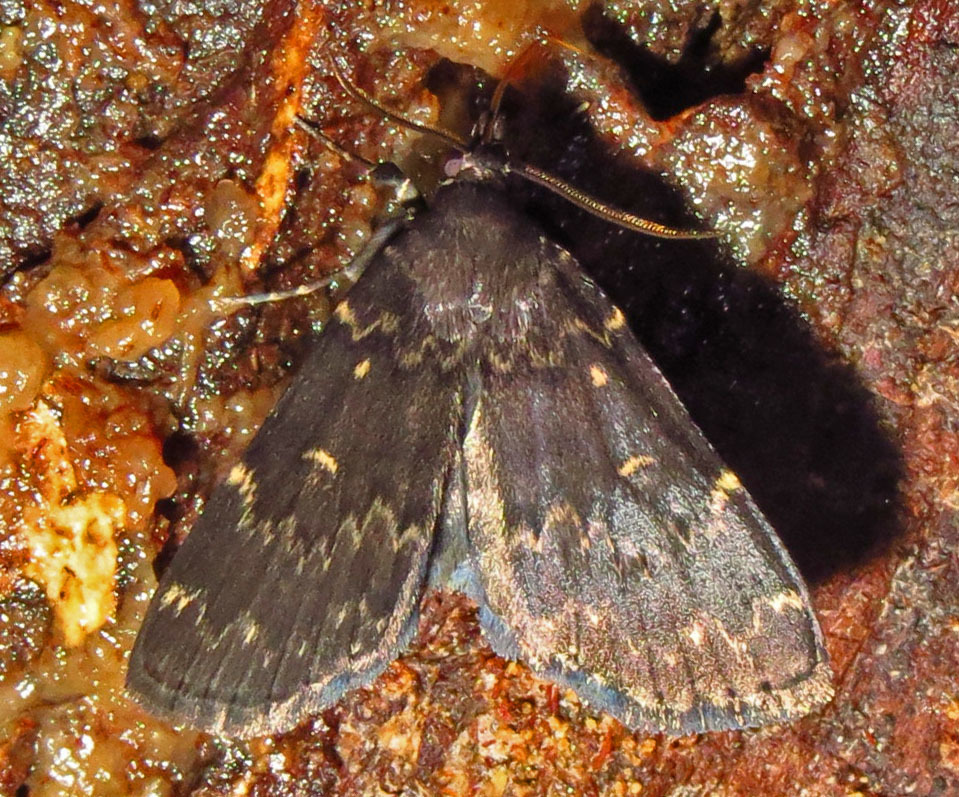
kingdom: Animalia
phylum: Arthropoda
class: Insecta
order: Lepidoptera
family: Erebidae
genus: Idia
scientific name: Idia lubricalis
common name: Twin-striped tabby
